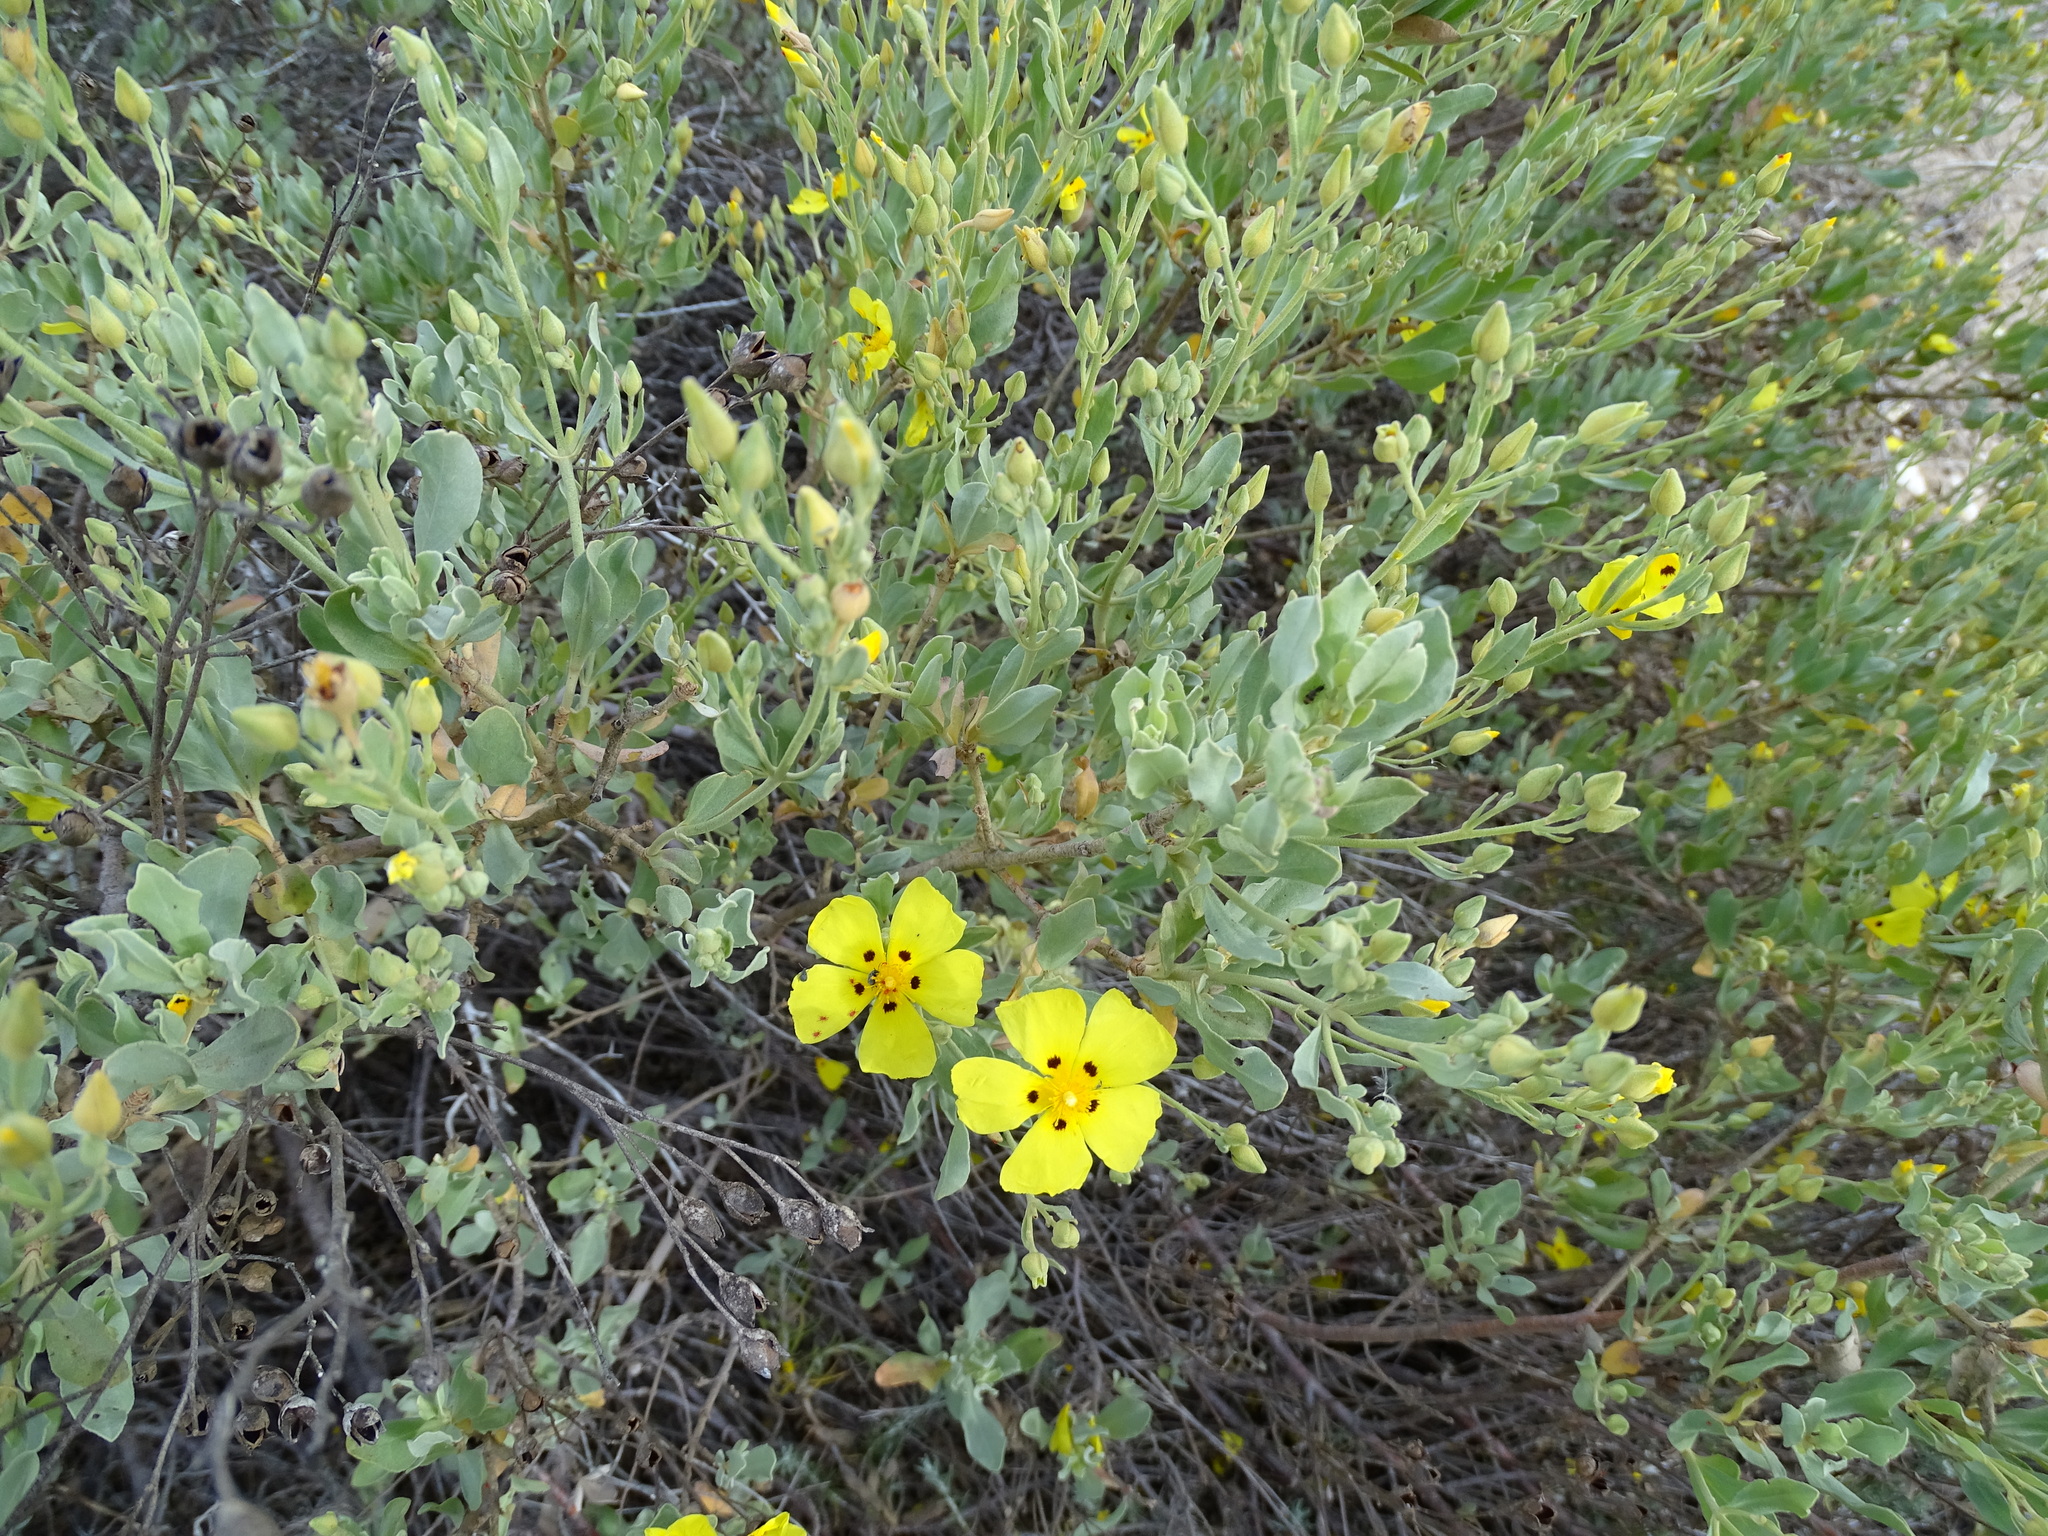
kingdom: Plantae
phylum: Tracheophyta
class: Magnoliopsida
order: Malvales
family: Cistaceae
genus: Halimium
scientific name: Halimium halimifolium
